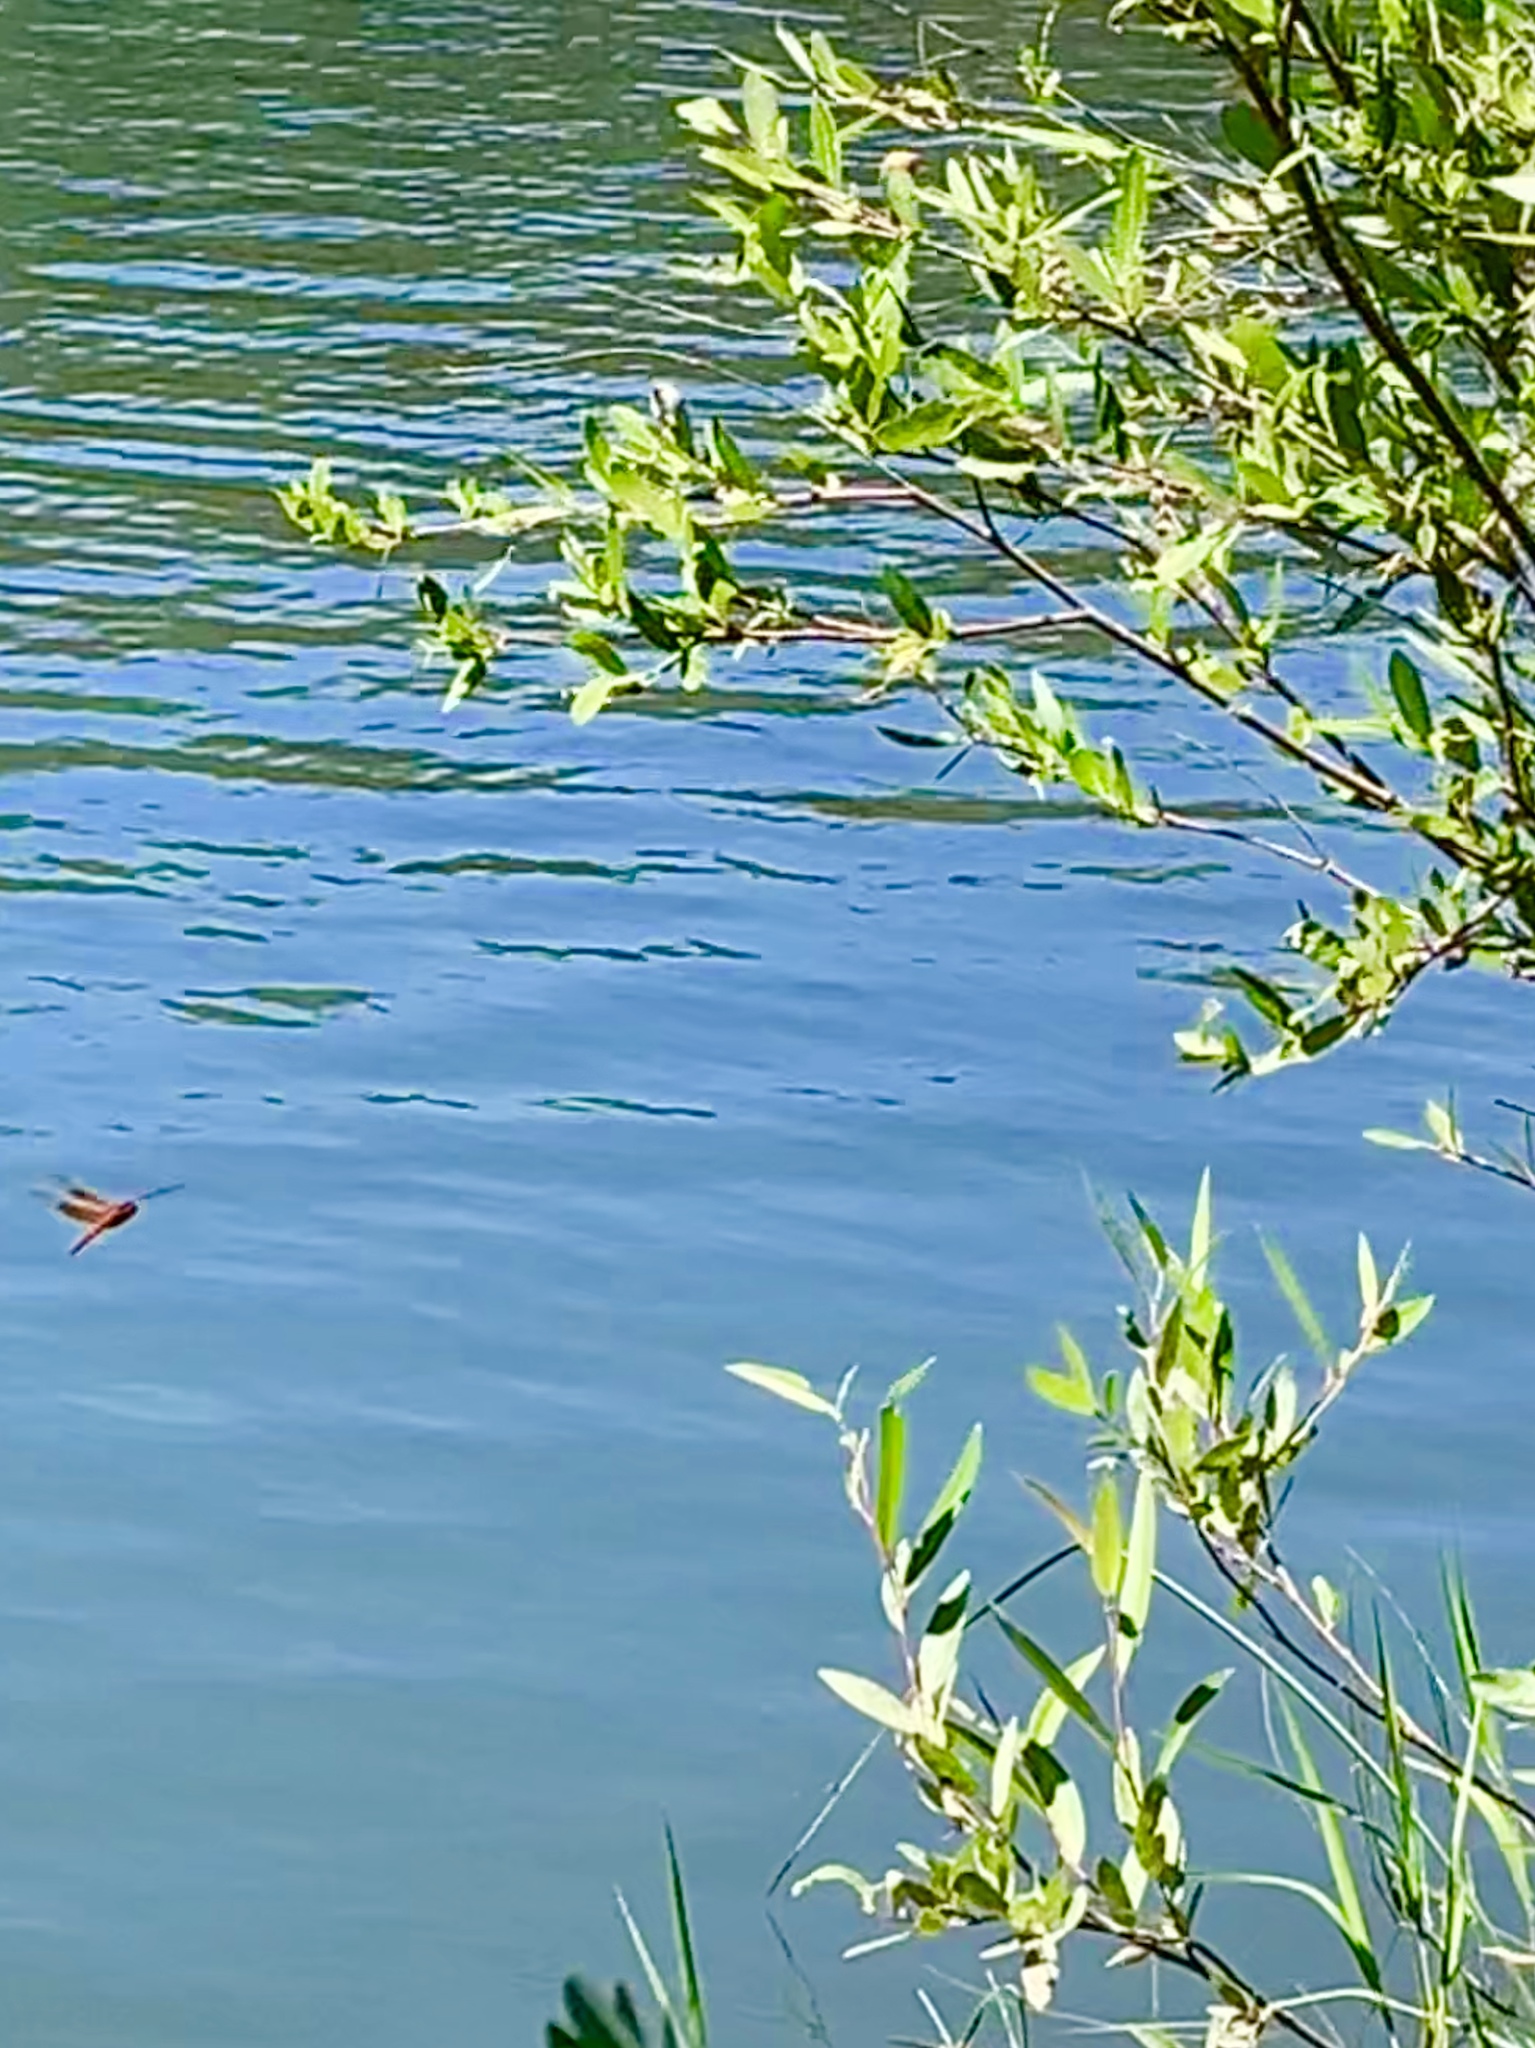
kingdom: Animalia
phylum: Arthropoda
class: Insecta
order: Odonata
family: Libellulidae
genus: Libellula
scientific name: Libellula saturata
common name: Flame skimmer
